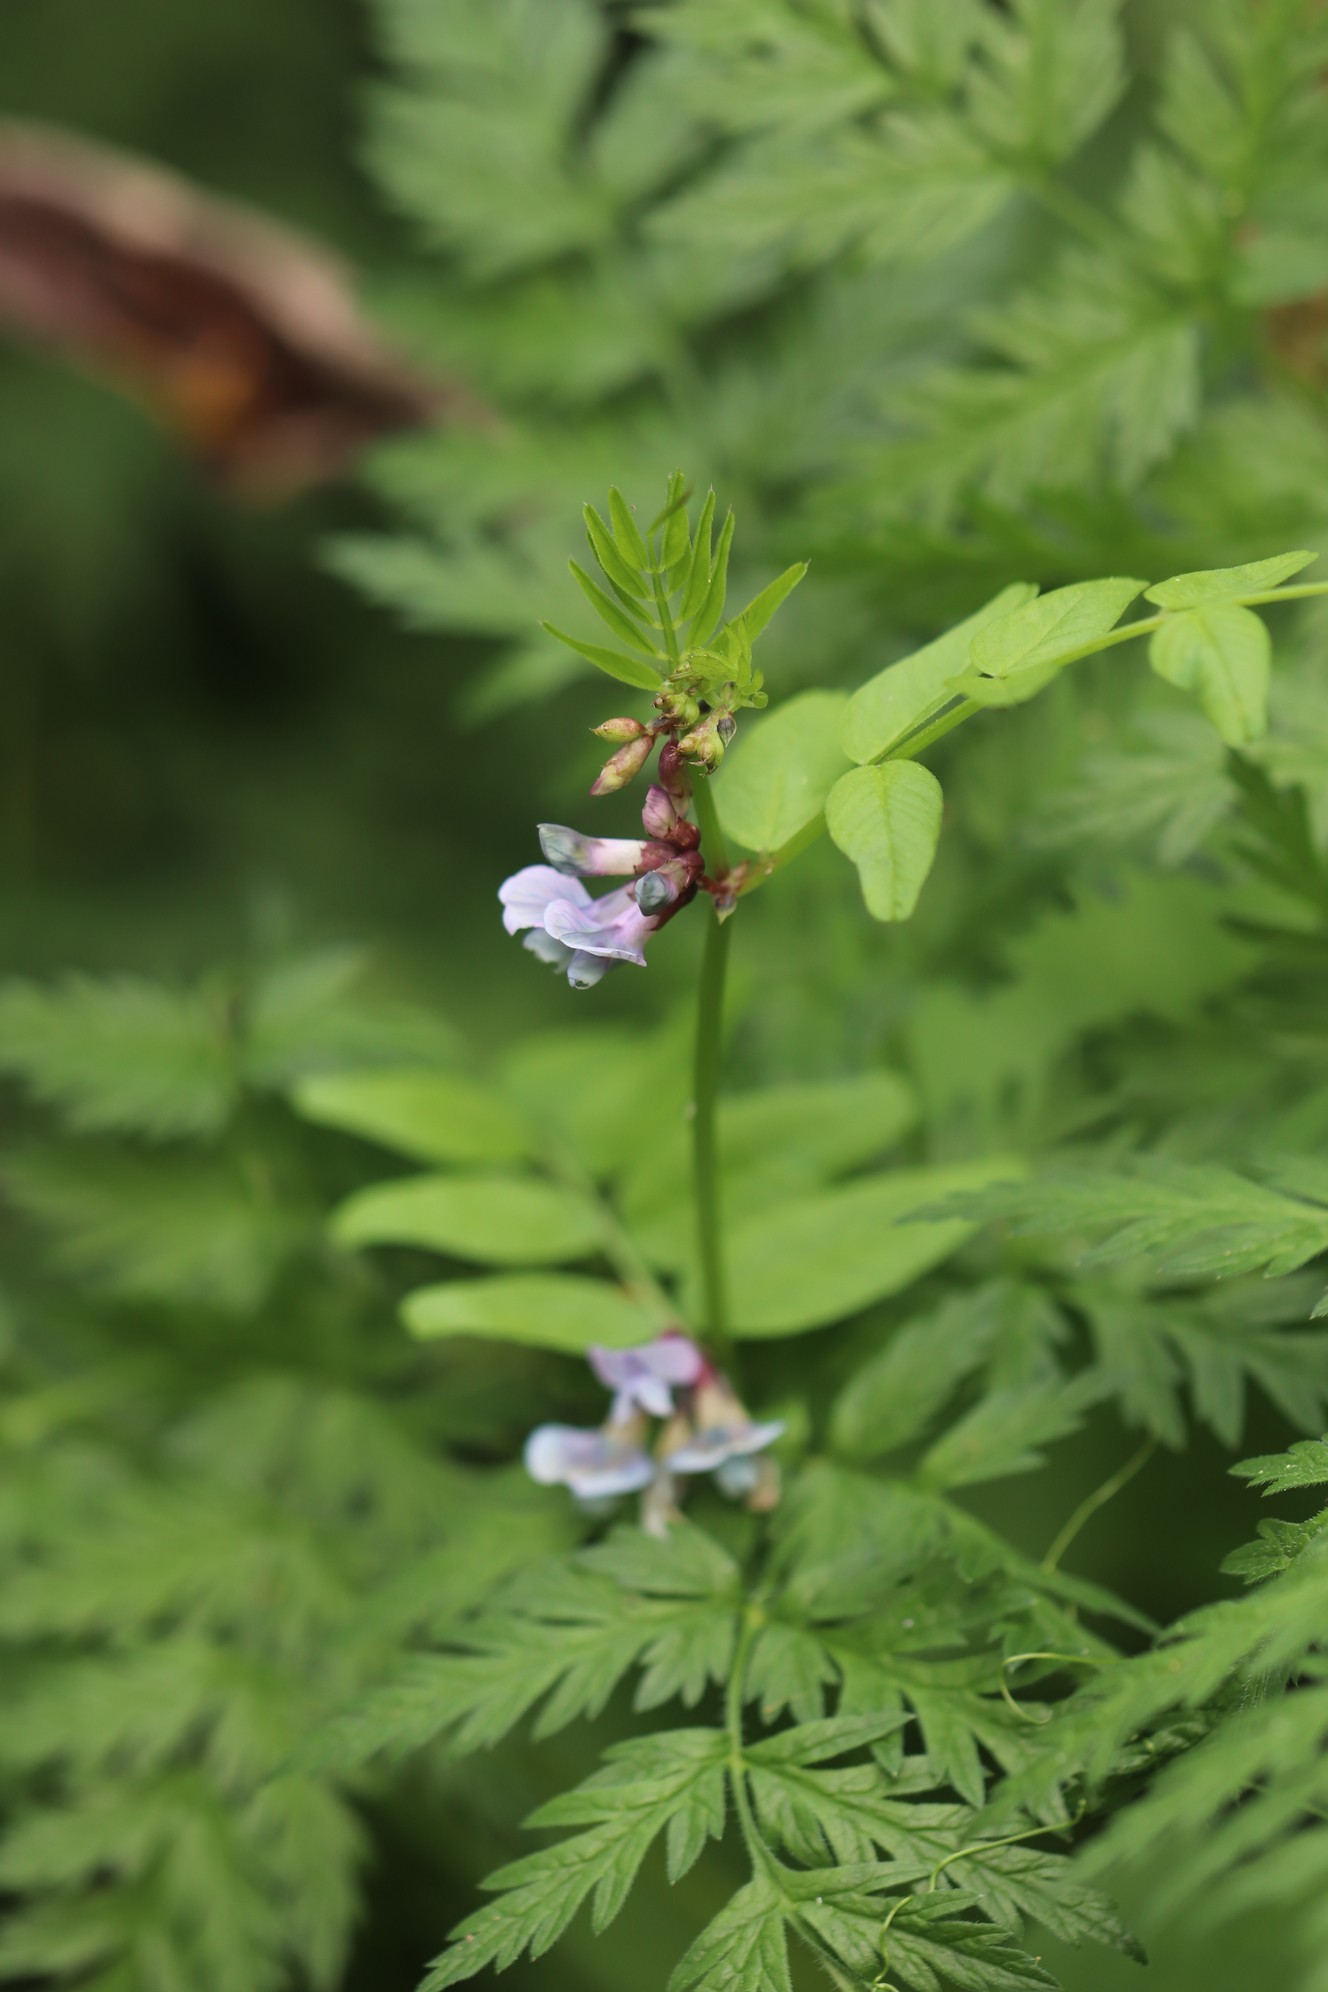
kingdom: Plantae
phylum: Tracheophyta
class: Magnoliopsida
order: Fabales
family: Fabaceae
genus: Vicia
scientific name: Vicia sepium
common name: Bush vetch
